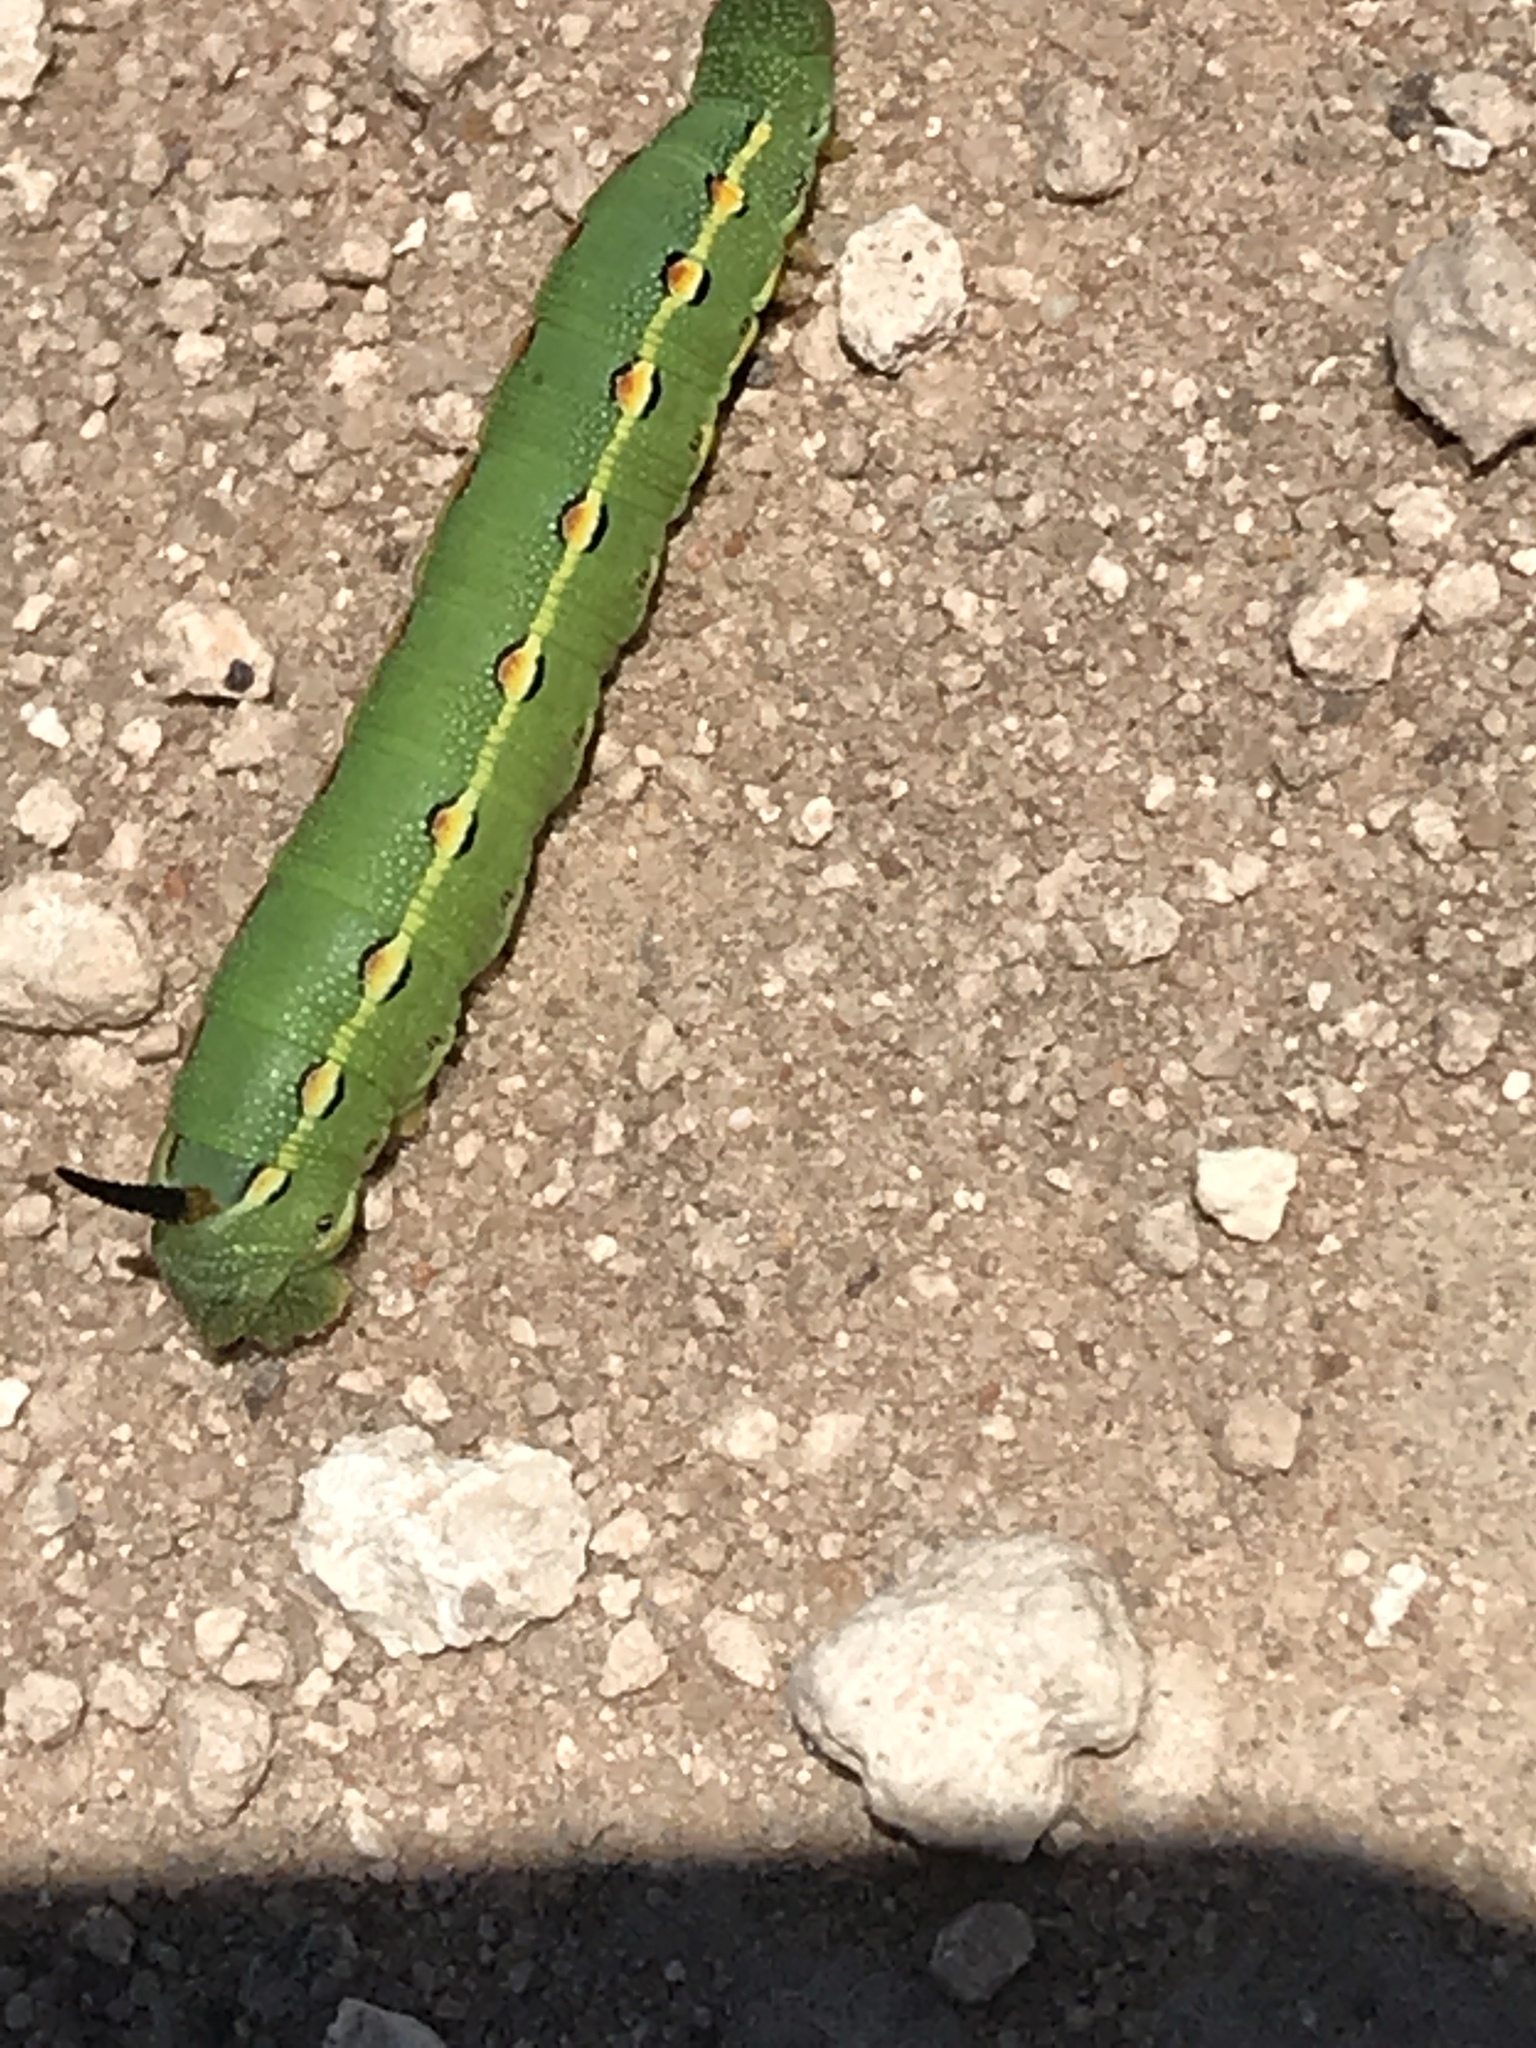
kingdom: Animalia
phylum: Arthropoda
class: Insecta
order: Lepidoptera
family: Sphingidae
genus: Hyles
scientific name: Hyles lineata
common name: White-lined sphinx
